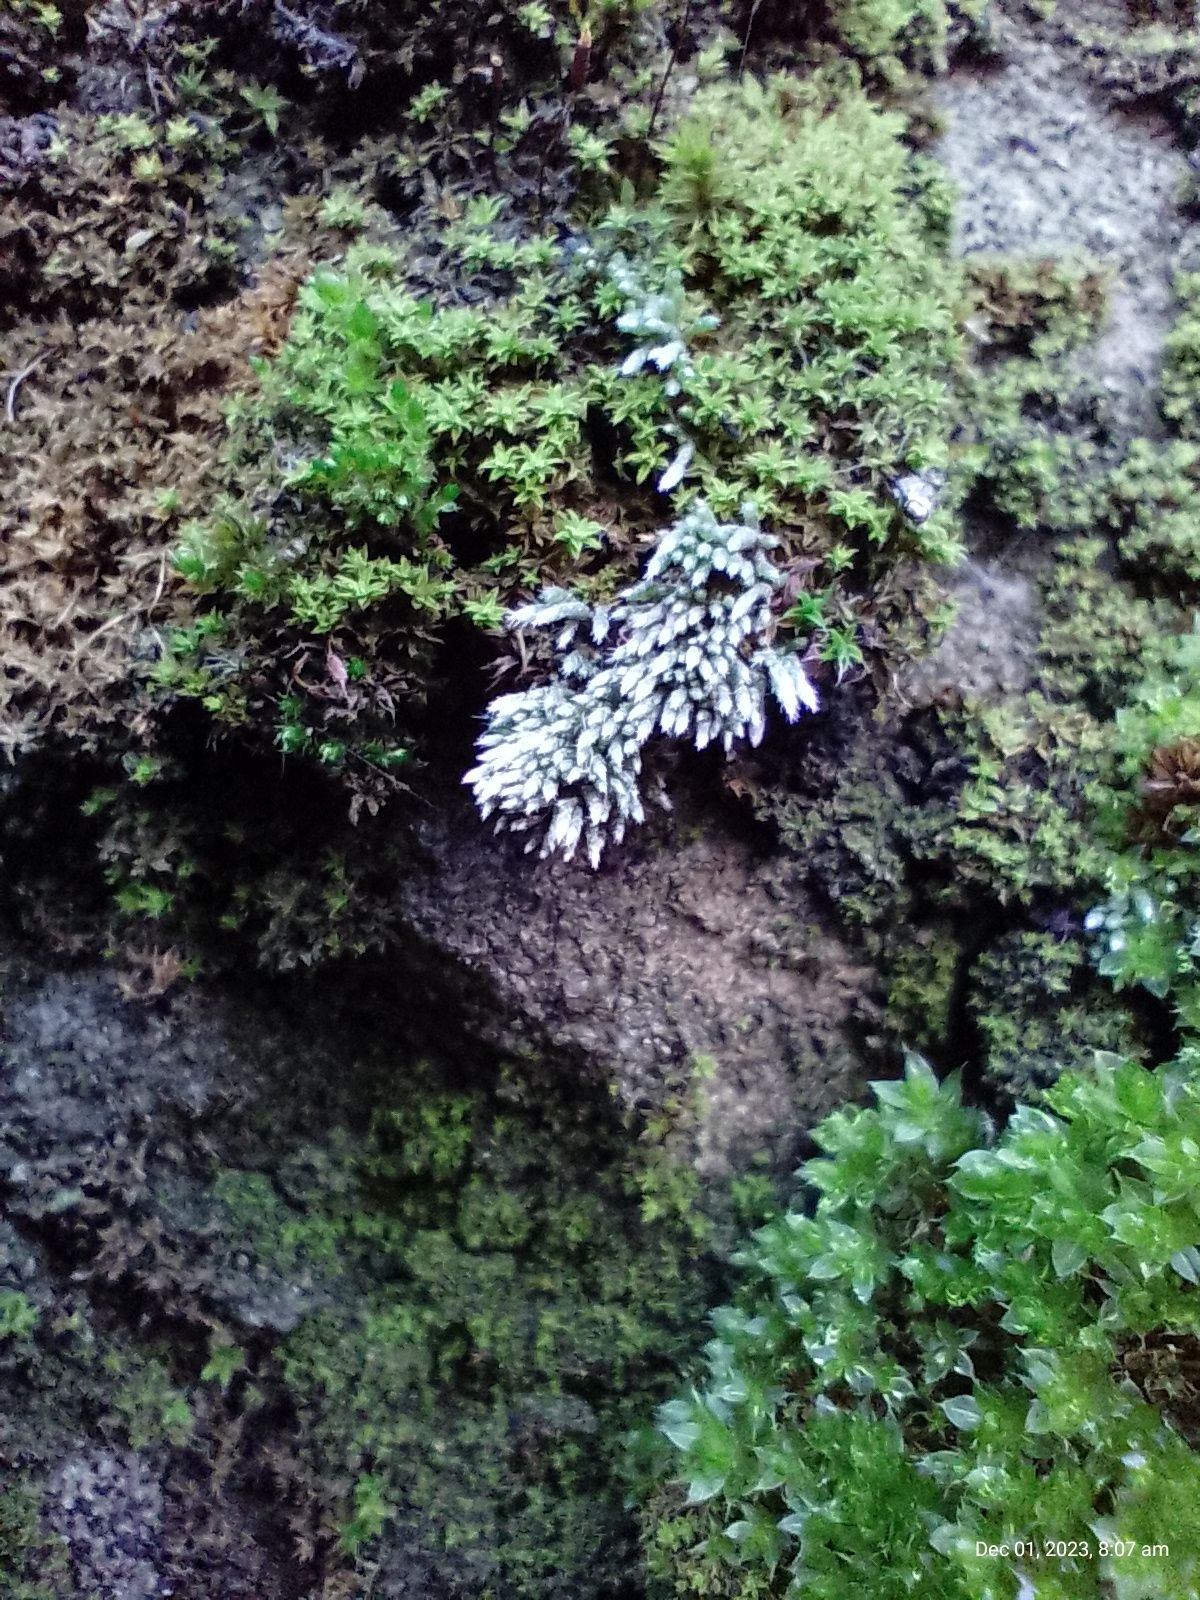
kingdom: Plantae
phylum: Bryophyta
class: Bryopsida
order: Bryales
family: Bryaceae
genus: Bryum
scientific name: Bryum argenteum
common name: Silver-moss
